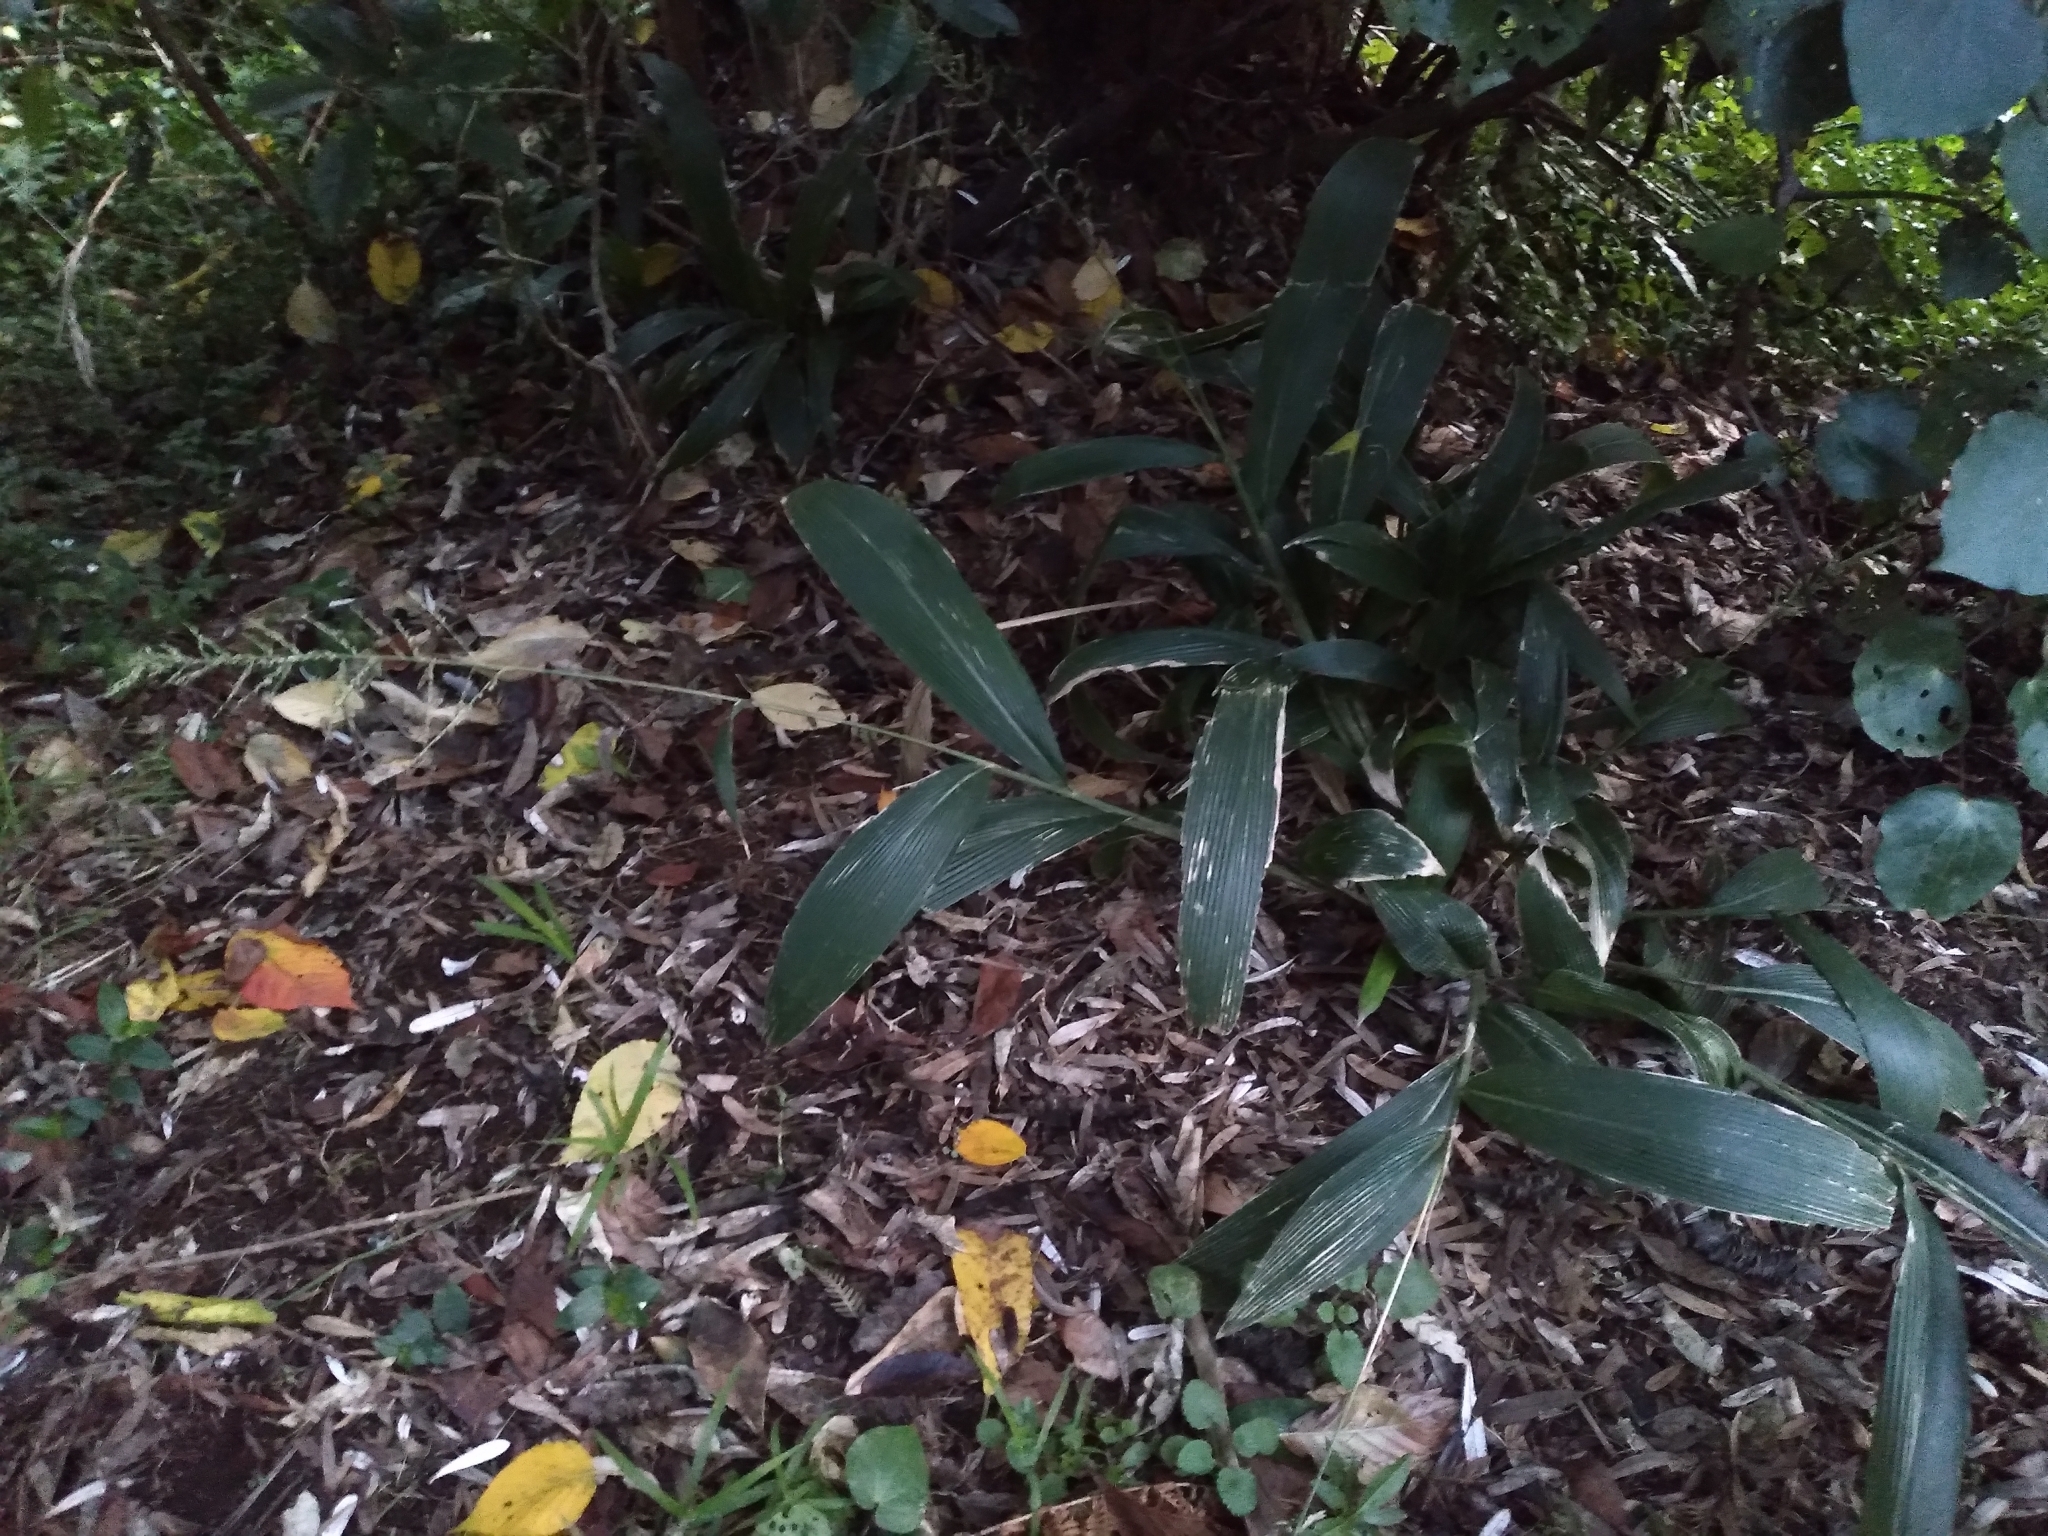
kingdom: Plantae
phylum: Tracheophyta
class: Liliopsida
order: Poales
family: Poaceae
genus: Setaria
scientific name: Setaria palmifolia
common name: Broadleaved bristlegrass
